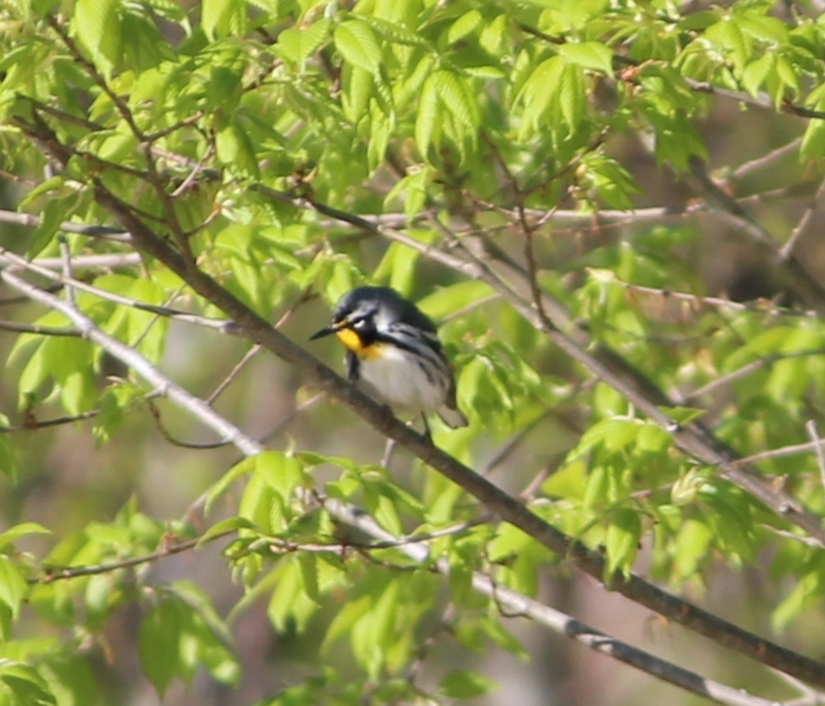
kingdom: Animalia
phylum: Chordata
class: Aves
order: Passeriformes
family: Parulidae
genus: Setophaga
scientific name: Setophaga dominica
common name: Yellow-throated warbler
